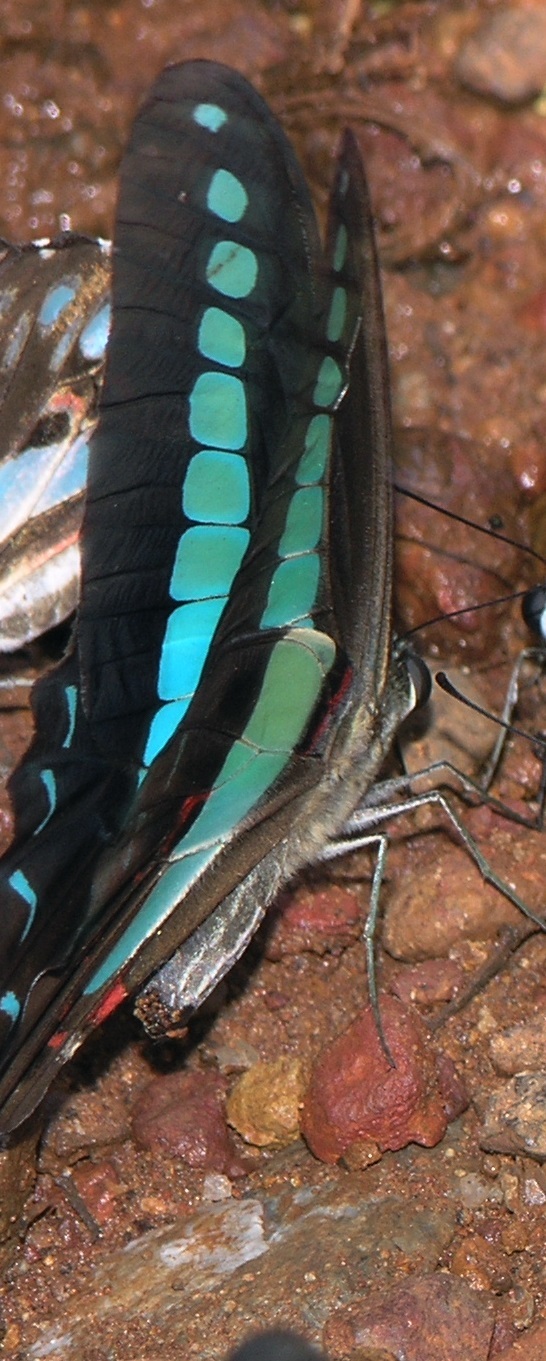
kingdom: Fungi
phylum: Ascomycota
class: Sordariomycetes
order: Microascales
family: Microascaceae
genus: Graphium
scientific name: Graphium sarpedon
